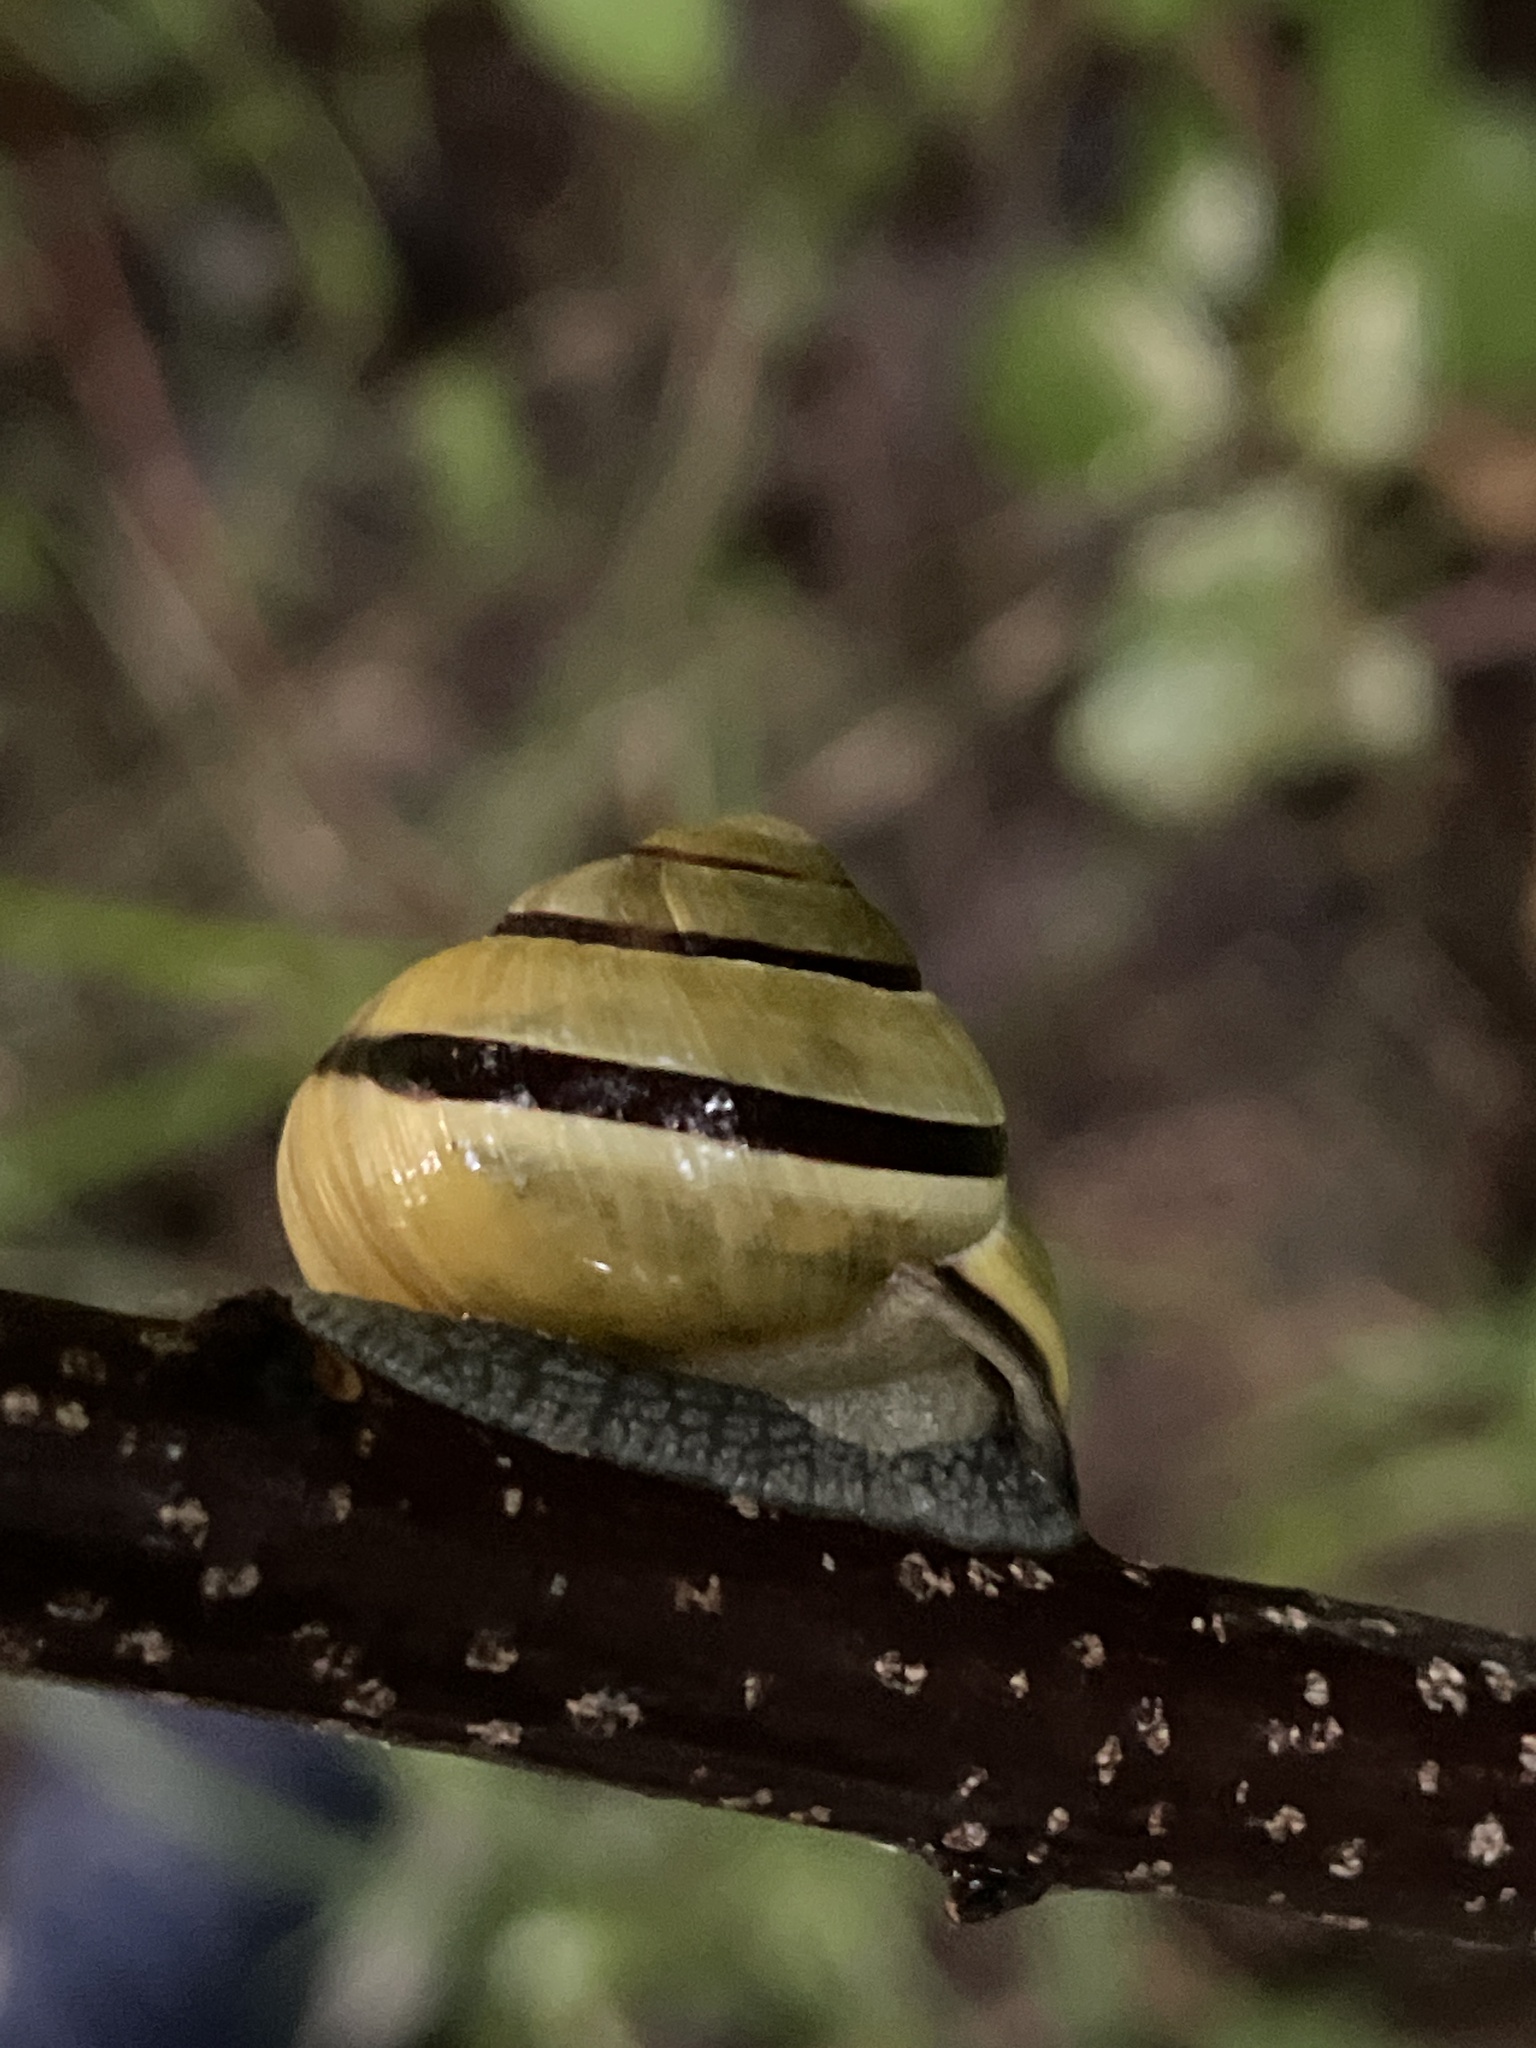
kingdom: Animalia
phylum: Mollusca
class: Gastropoda
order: Stylommatophora
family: Helicidae
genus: Cepaea
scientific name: Cepaea nemoralis
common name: Grovesnail
